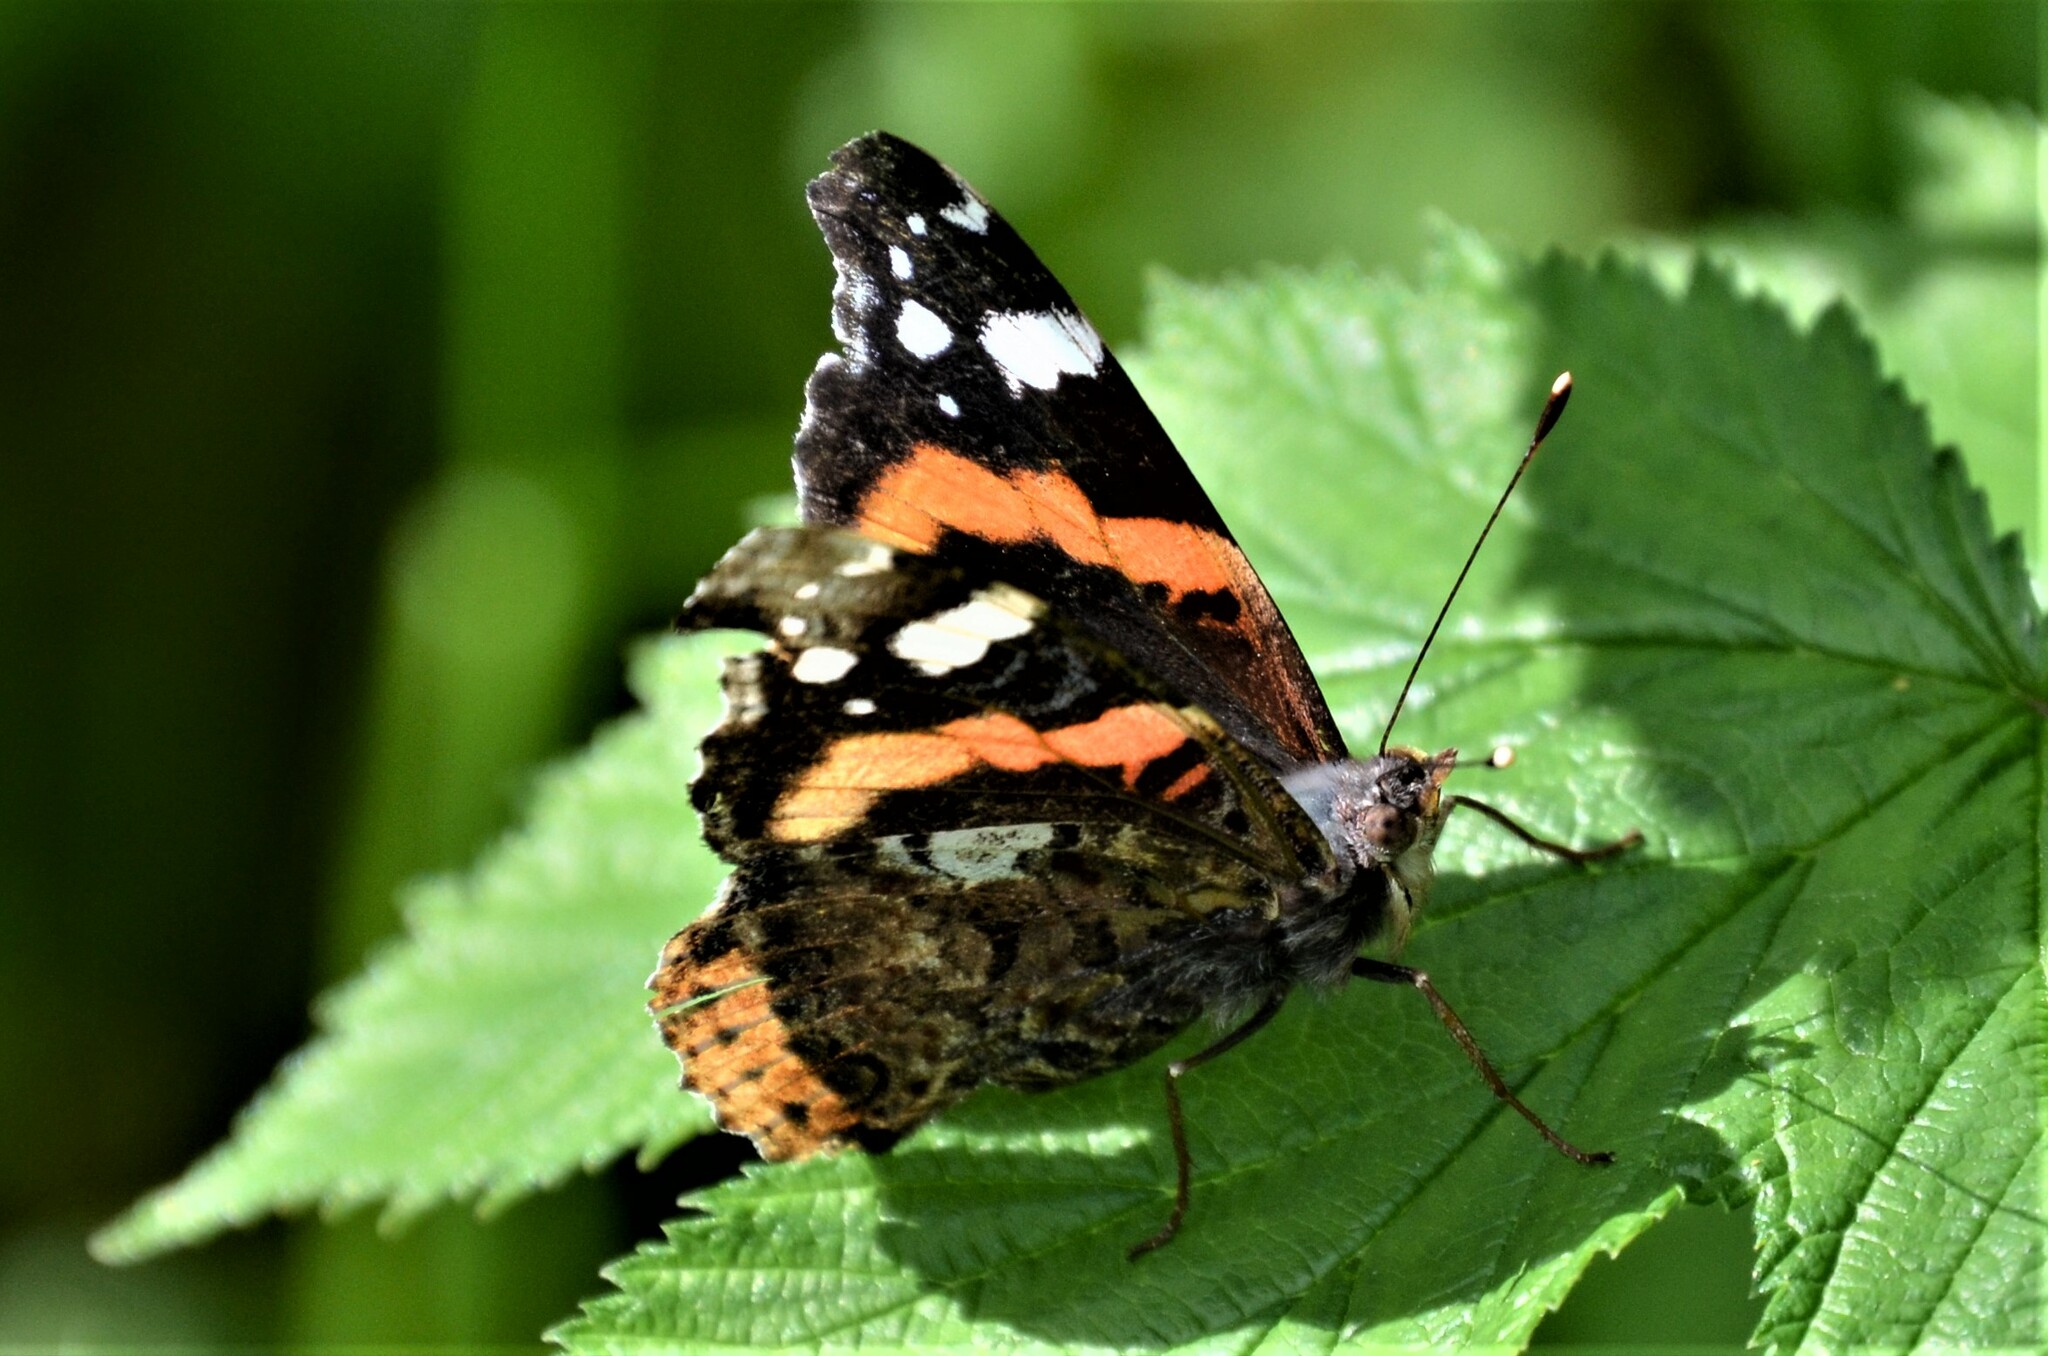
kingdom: Animalia
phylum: Arthropoda
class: Insecta
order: Lepidoptera
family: Nymphalidae
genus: Vanessa
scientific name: Vanessa atalanta
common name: Red admiral
